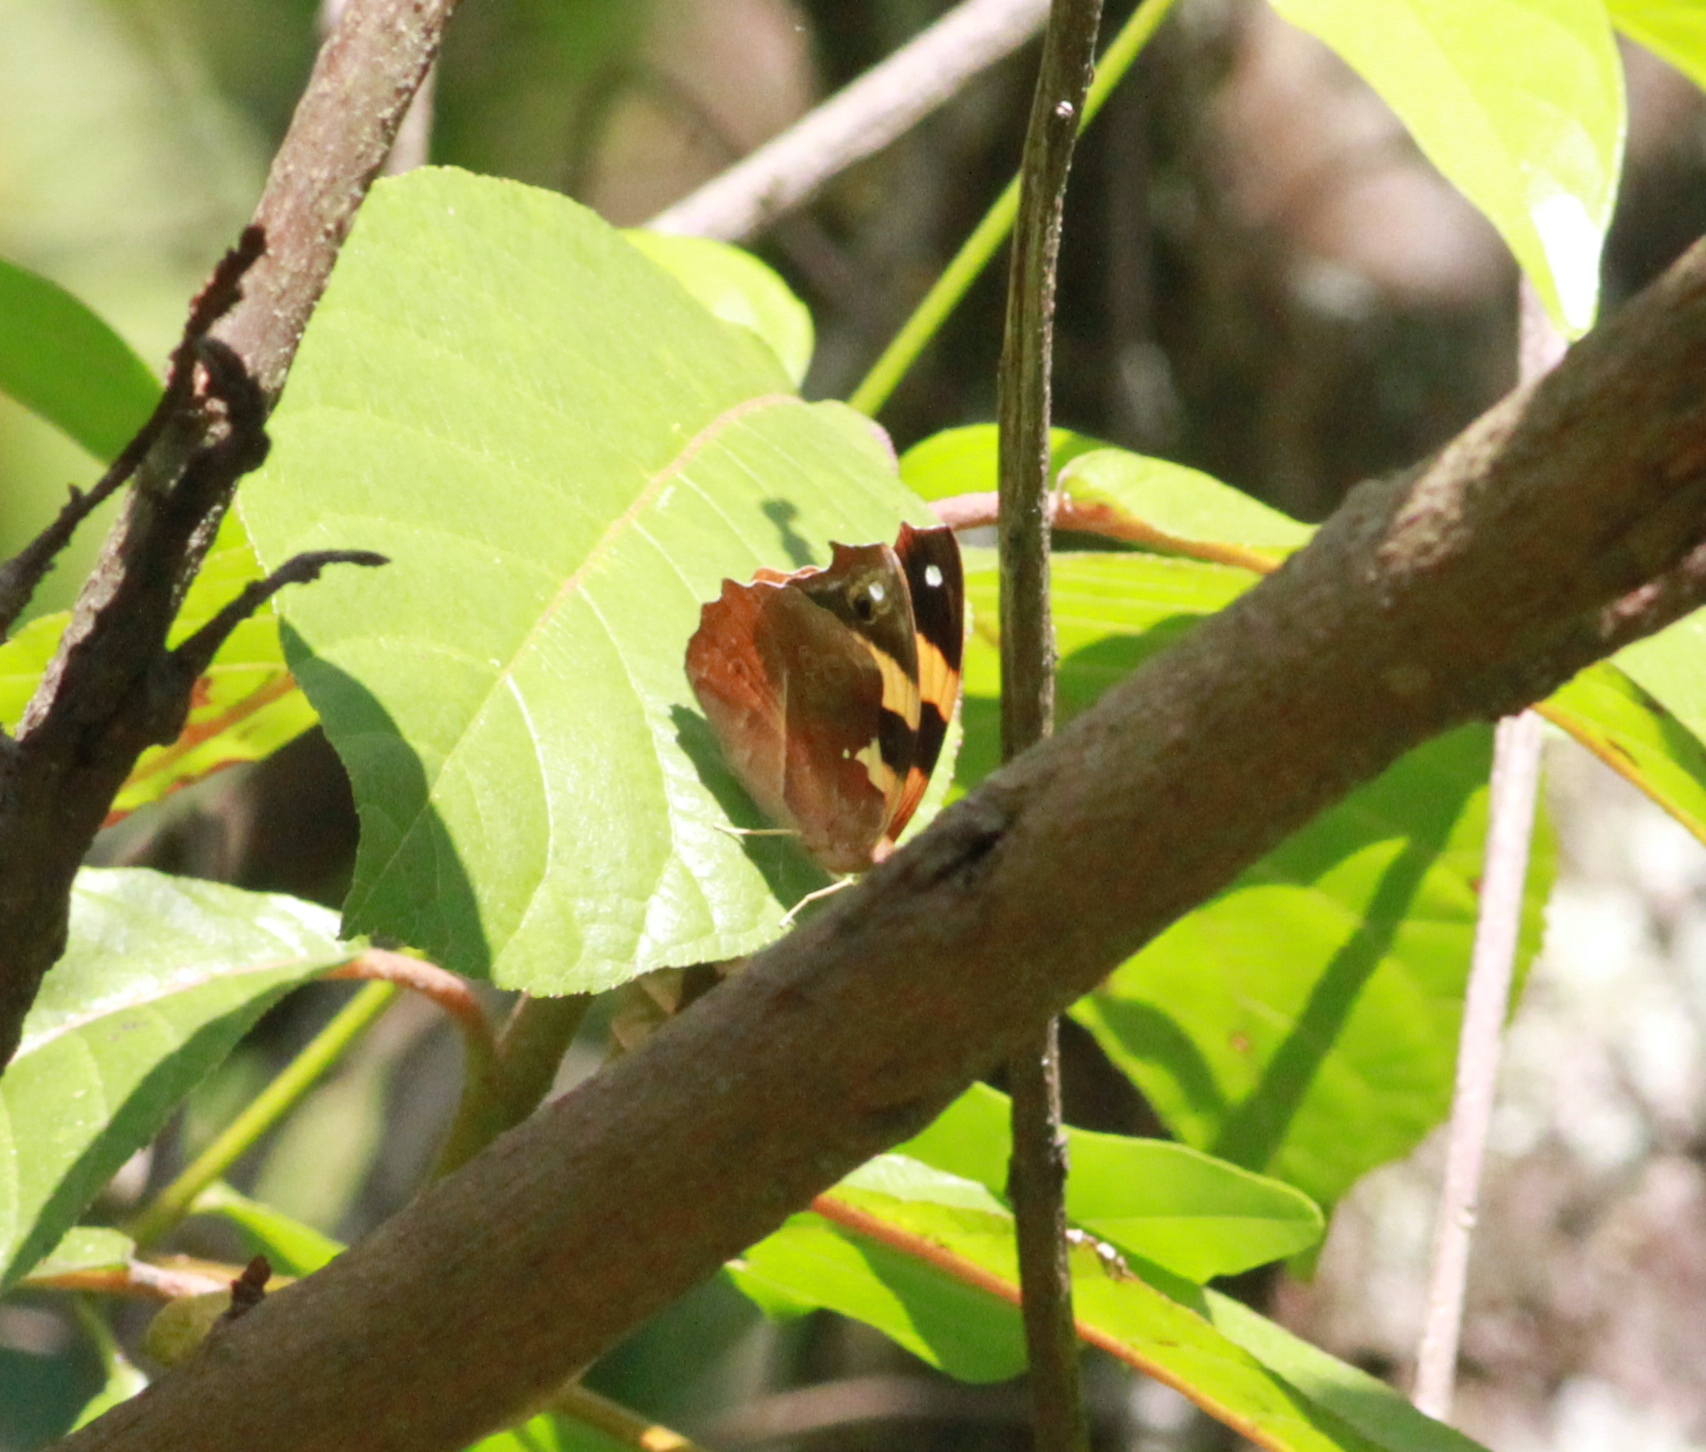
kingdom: Animalia
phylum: Arthropoda
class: Insecta
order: Lepidoptera
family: Nymphalidae
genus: Epiphile
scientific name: Epiphile adrasta
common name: Common banner
